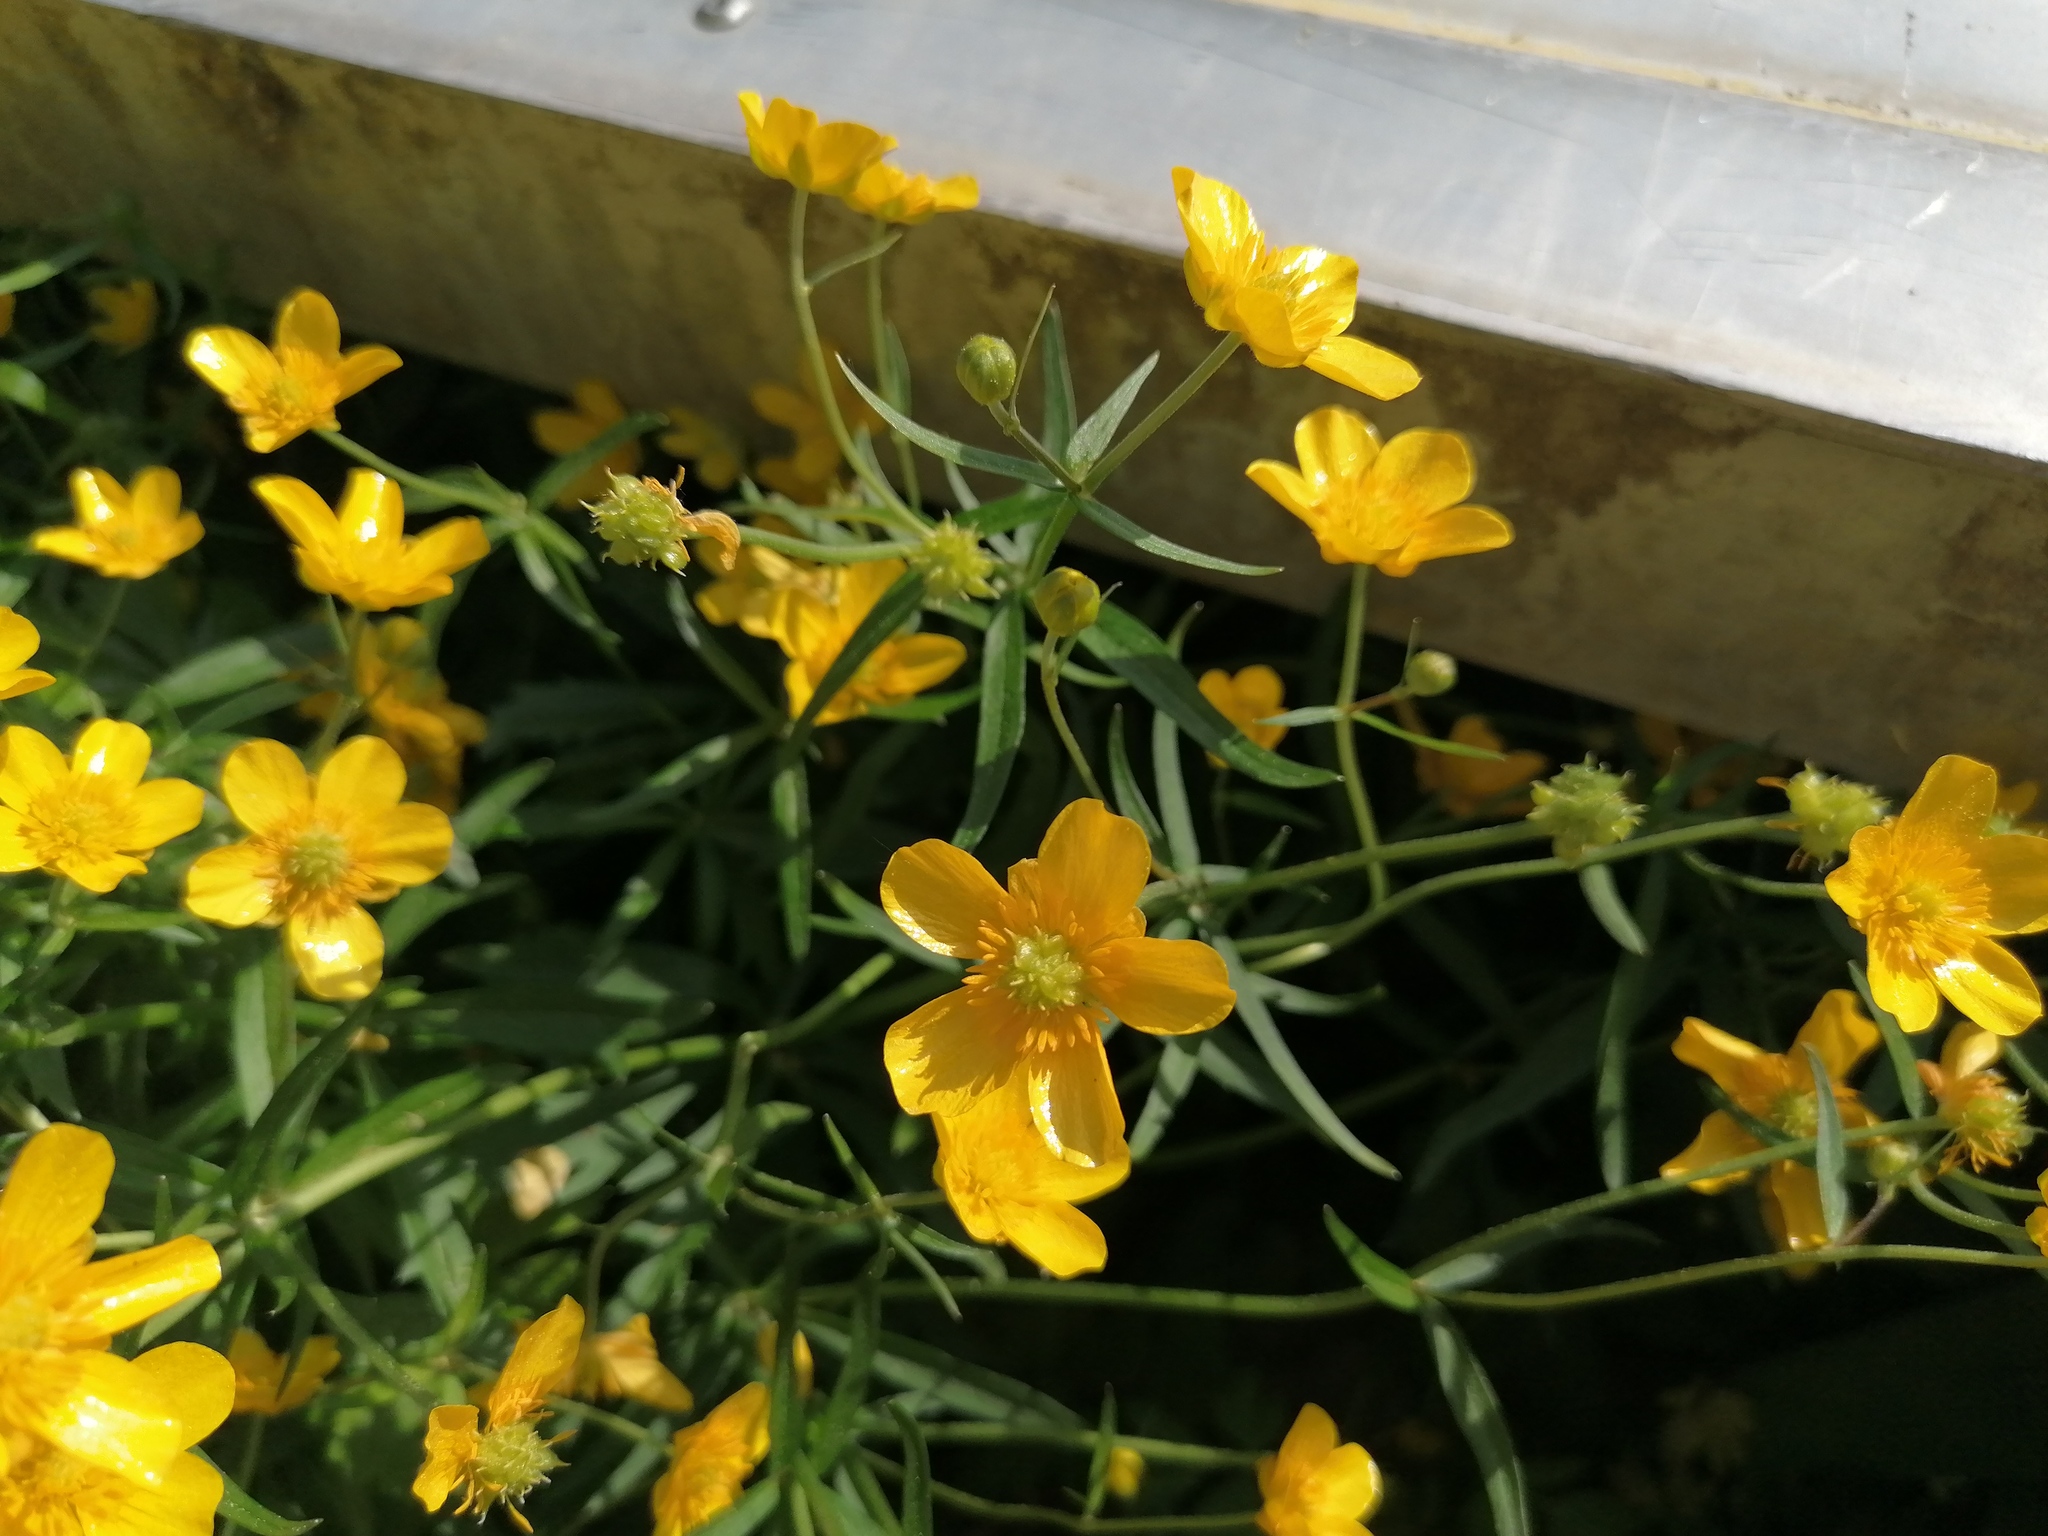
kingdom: Plantae
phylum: Tracheophyta
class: Magnoliopsida
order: Ranunculales
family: Ranunculaceae
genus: Ranunculus
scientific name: Ranunculus auricomus
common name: Goldilocks buttercup
